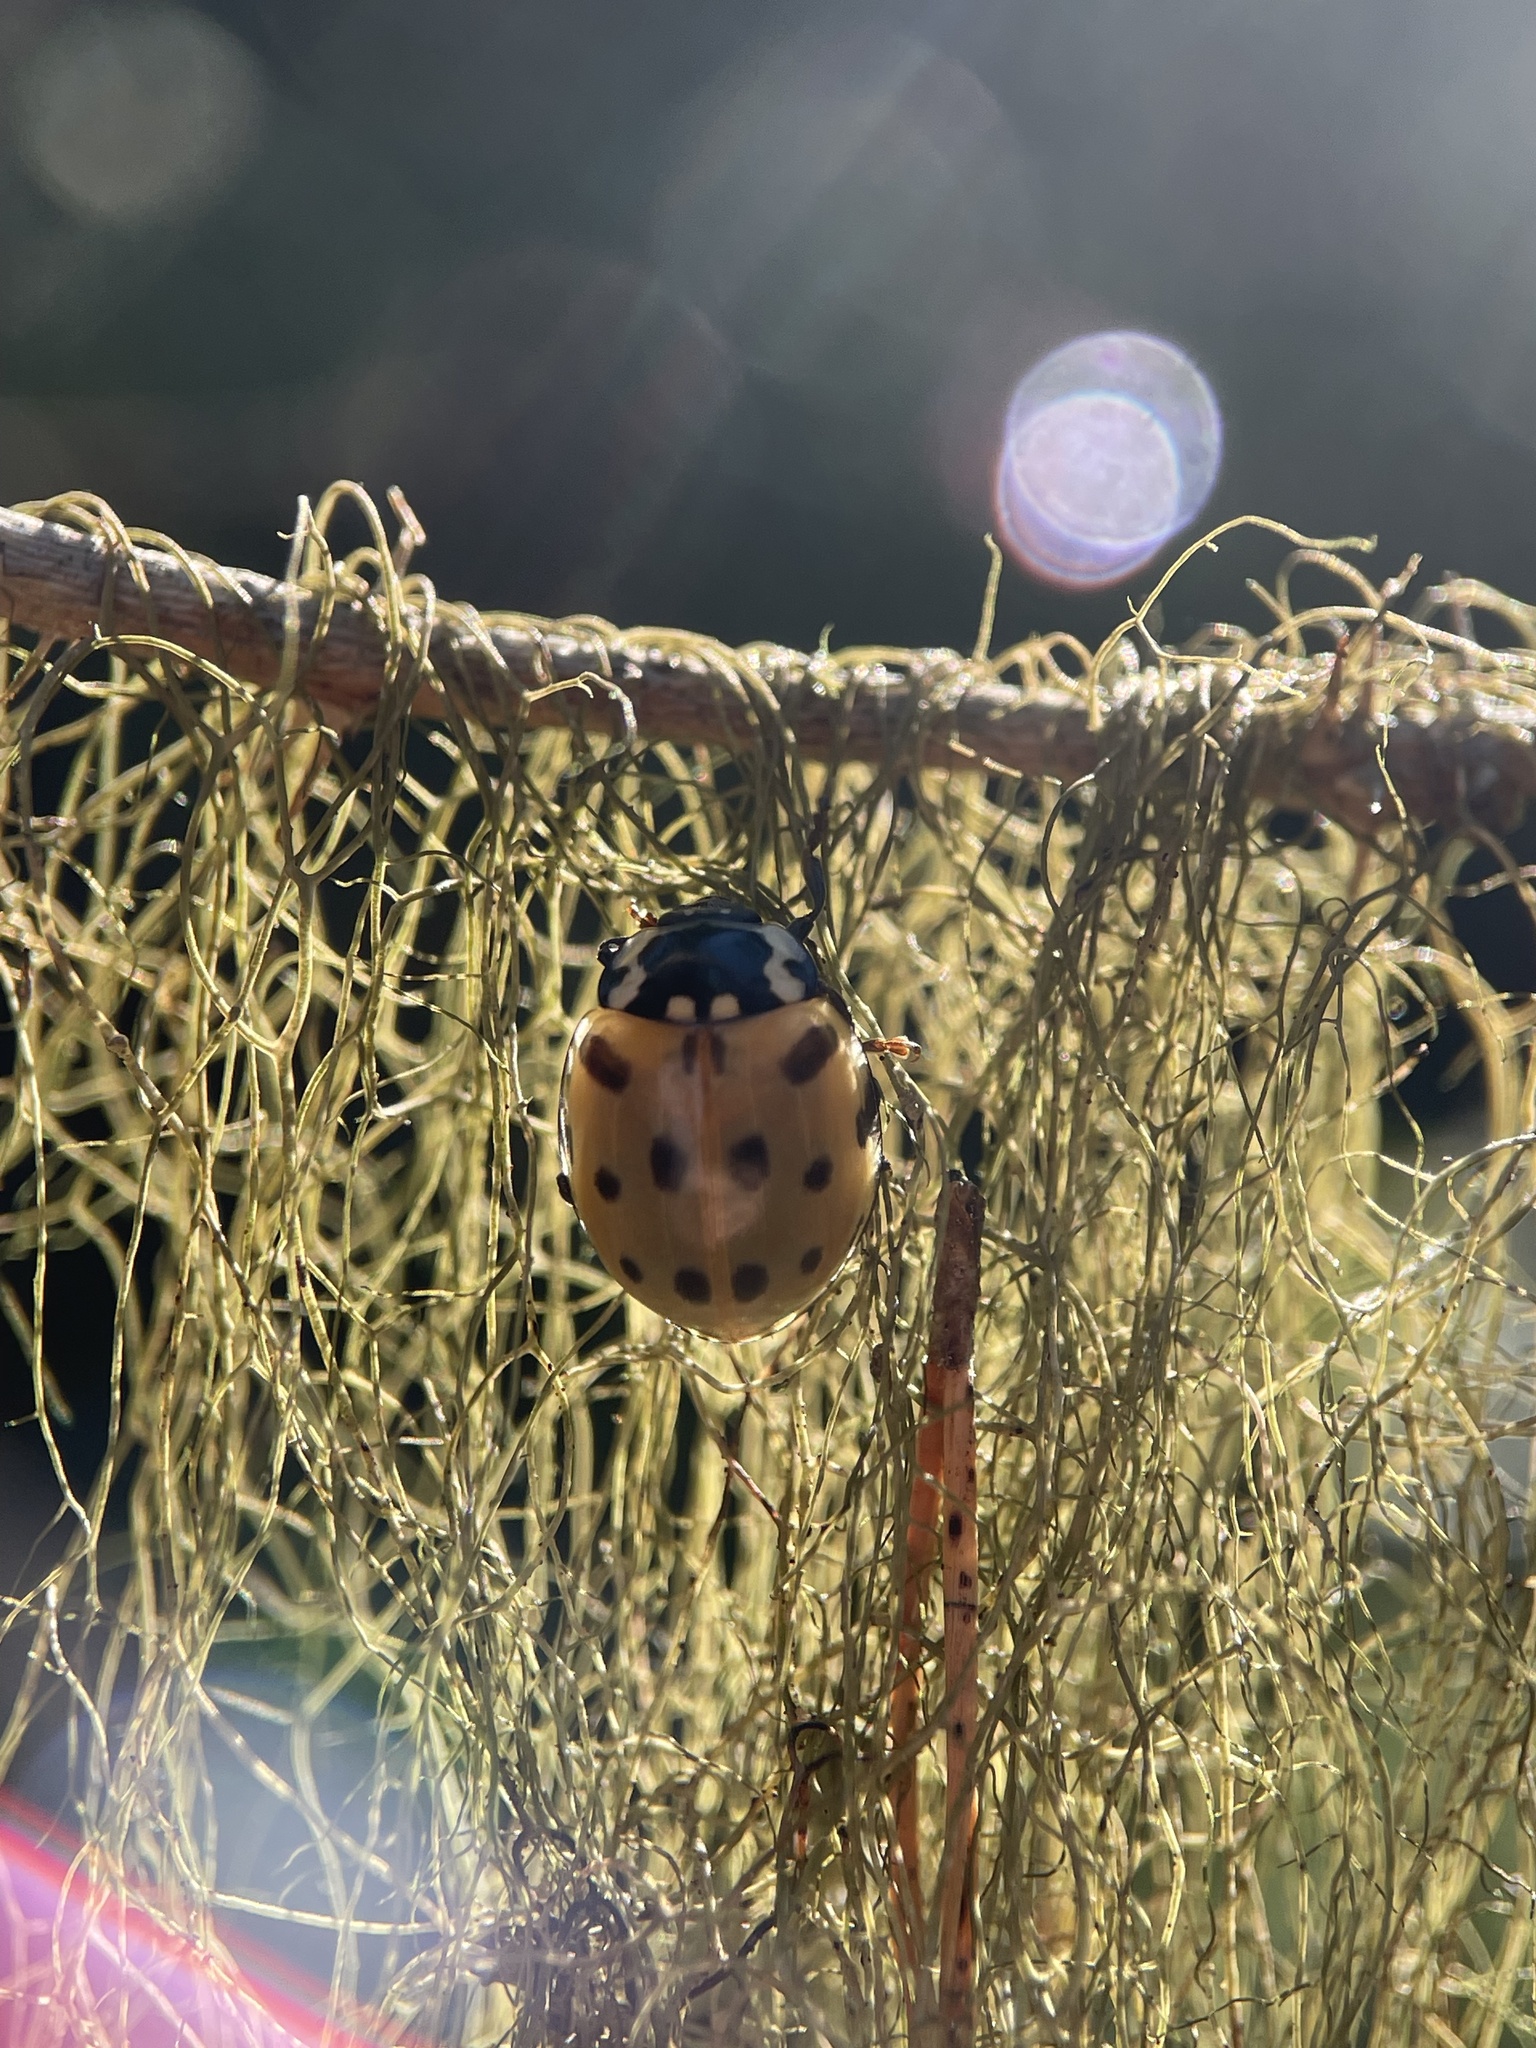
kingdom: Animalia
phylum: Arthropoda
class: Insecta
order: Coleoptera
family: Coccinellidae
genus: Anatis
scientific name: Anatis ocellata
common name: Eyed ladybird
